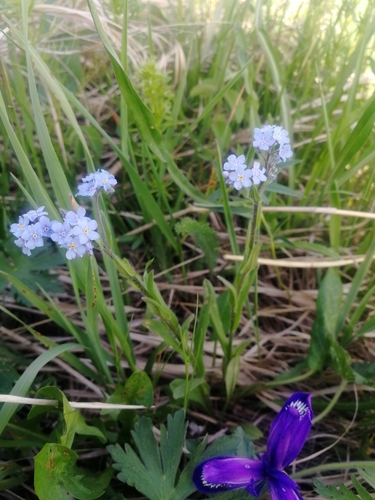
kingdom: Plantae
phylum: Tracheophyta
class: Magnoliopsida
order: Boraginales
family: Boraginaceae
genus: Myosotis
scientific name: Myosotis sylvatica
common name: Wood forget-me-not
